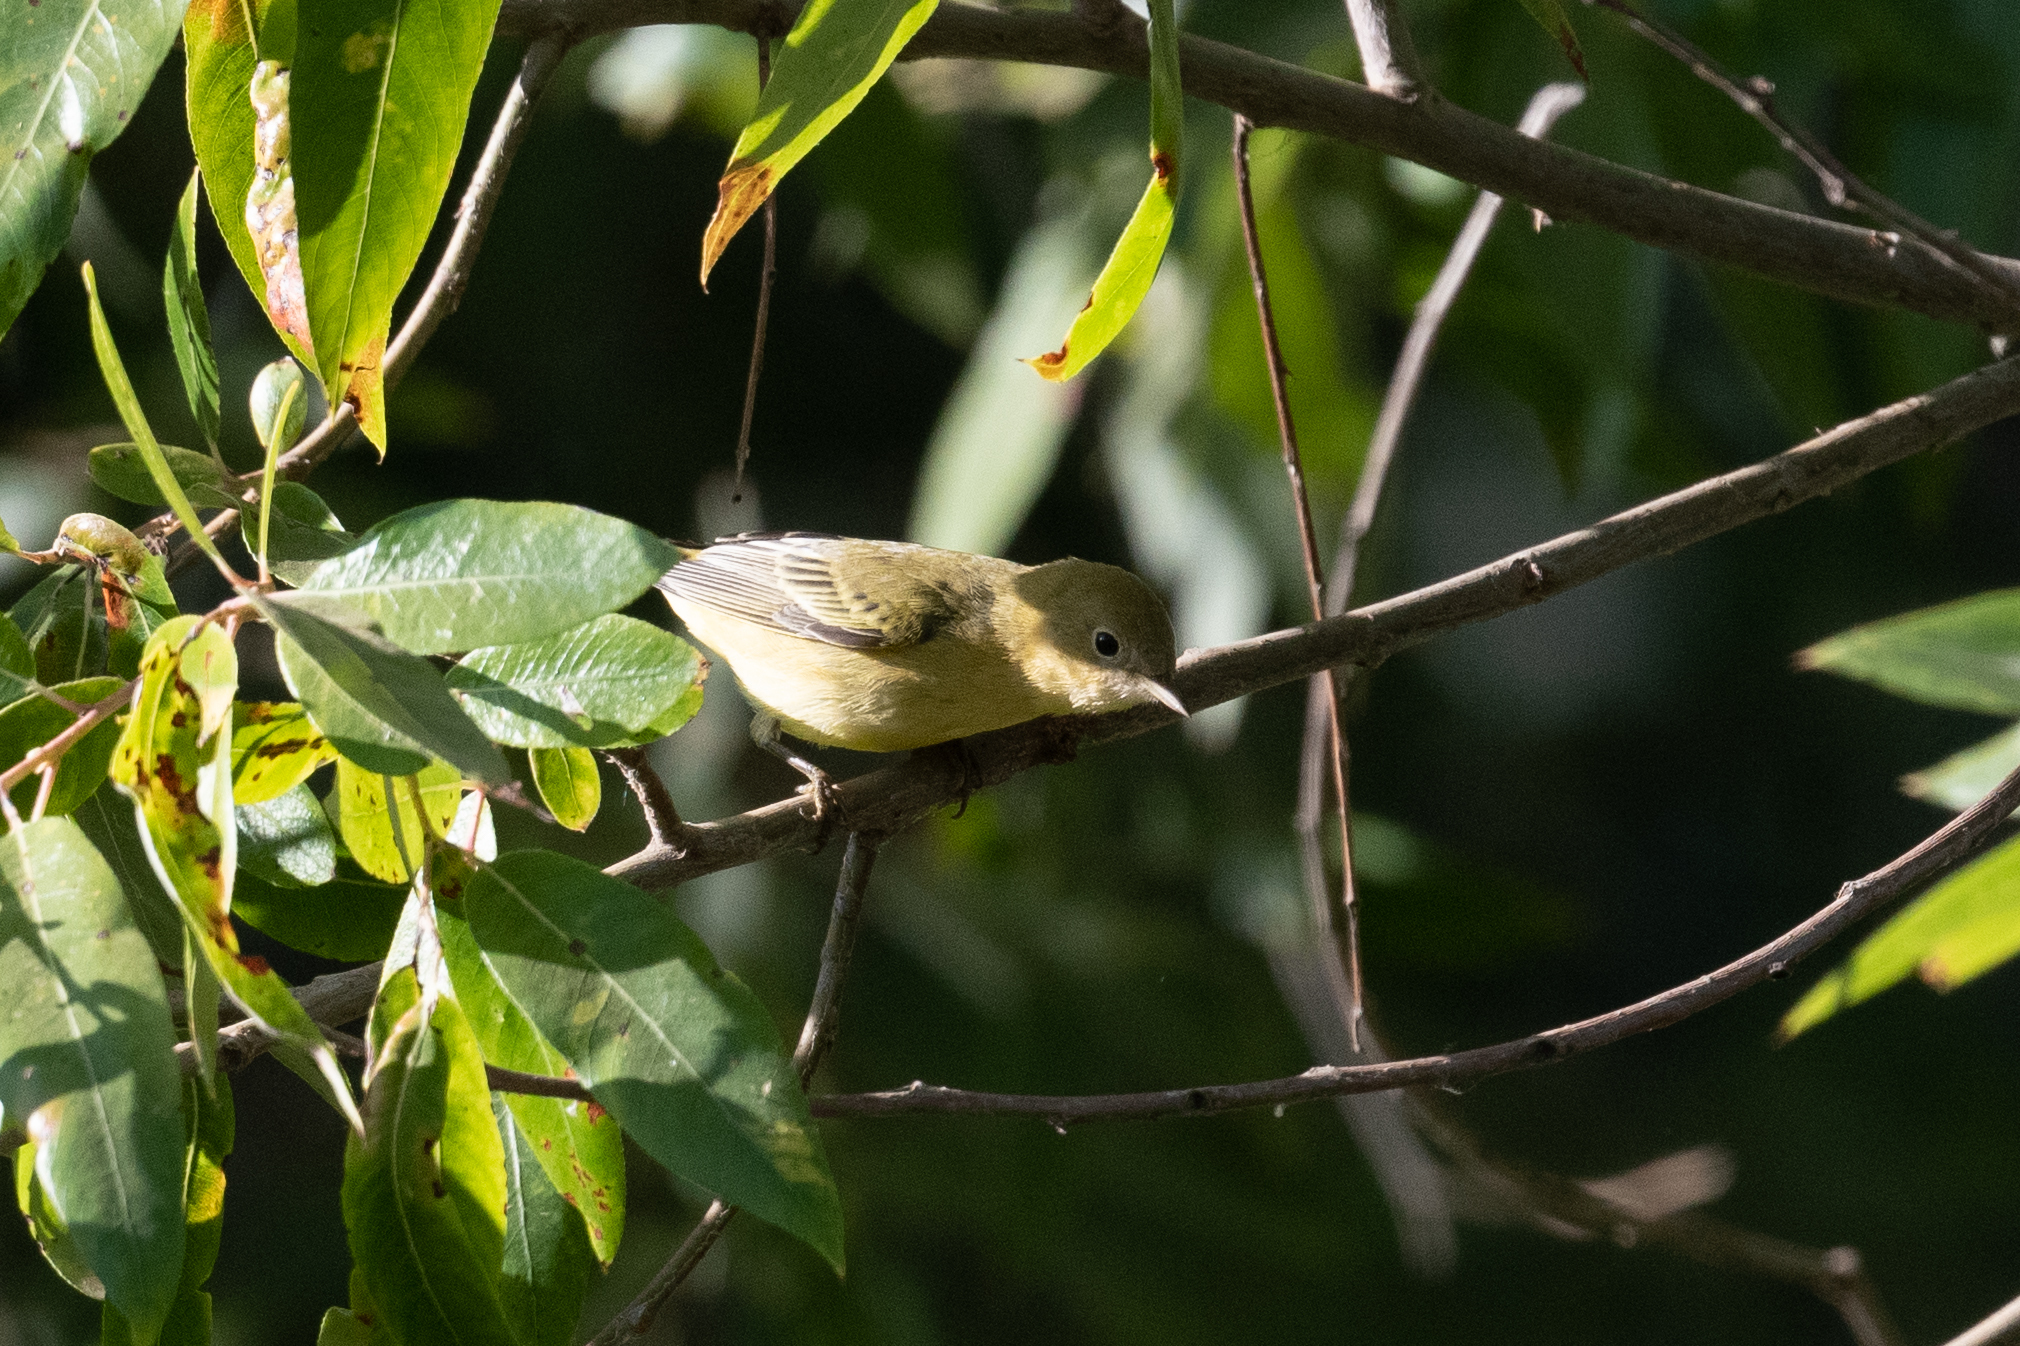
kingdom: Animalia
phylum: Chordata
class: Aves
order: Passeriformes
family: Parulidae
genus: Setophaga
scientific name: Setophaga petechia
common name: Yellow warbler
